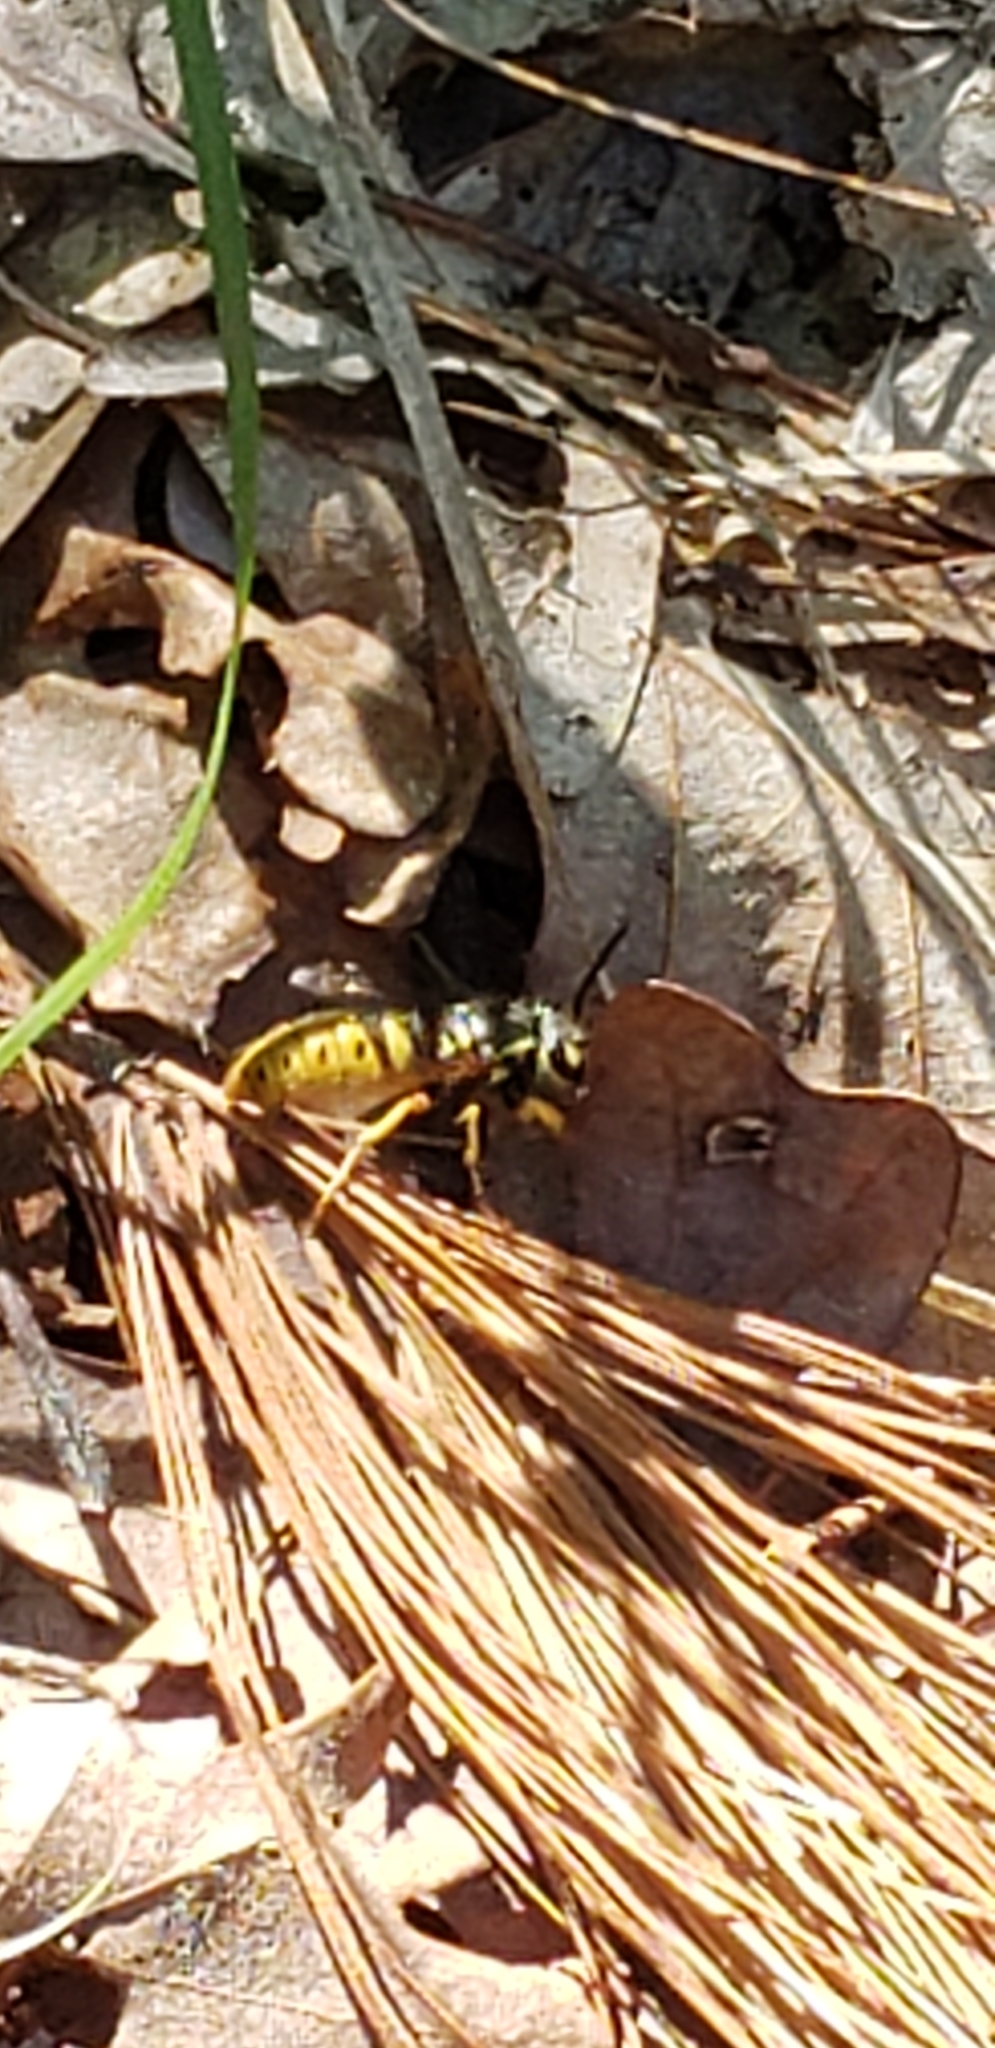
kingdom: Animalia
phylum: Arthropoda
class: Insecta
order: Hymenoptera
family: Vespidae
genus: Vespula
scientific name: Vespula flavopilosa
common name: Downy yellowjacket
